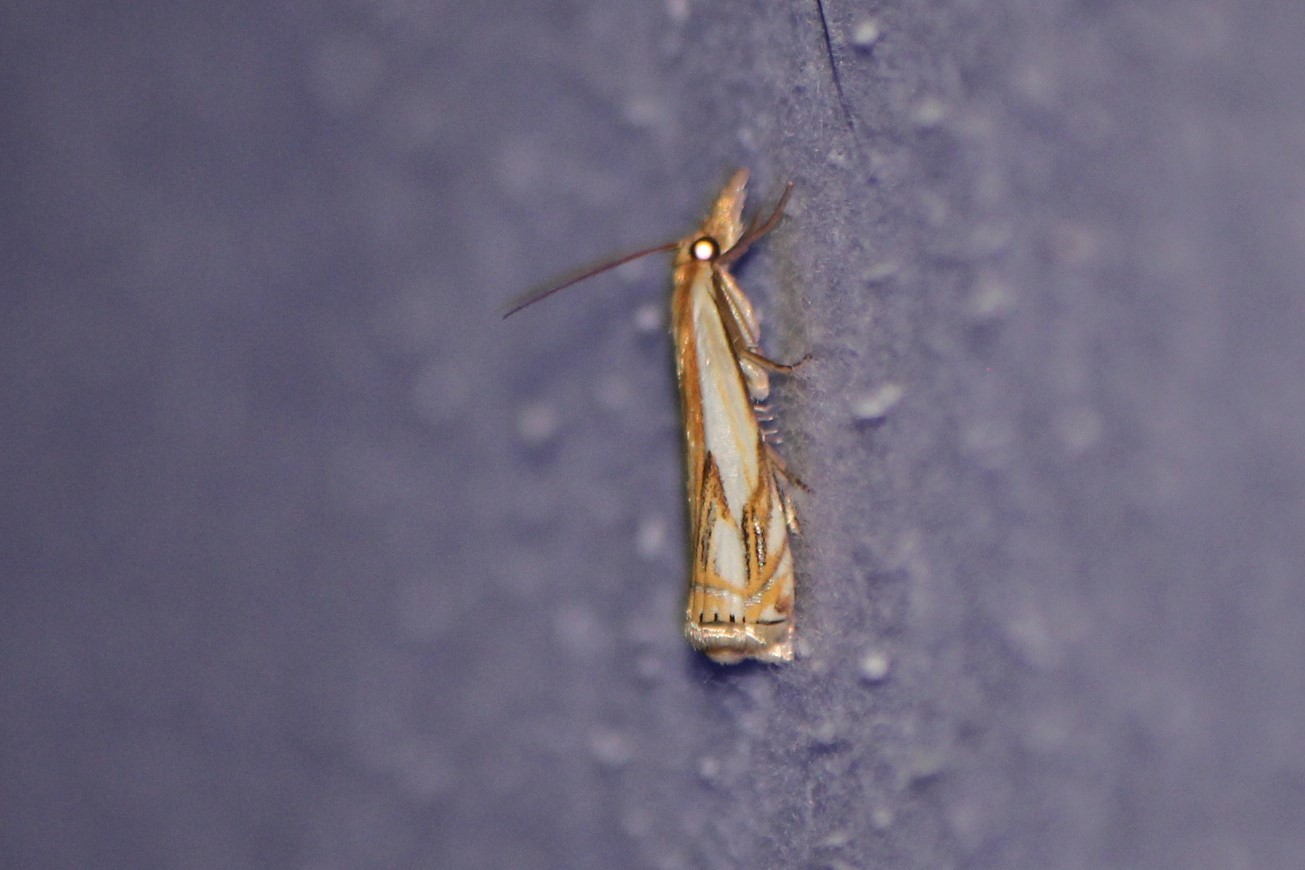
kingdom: Animalia
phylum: Arthropoda
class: Insecta
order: Lepidoptera
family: Crambidae
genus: Crambus
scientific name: Crambus agitatellus
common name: Double-banded grass-veneer
